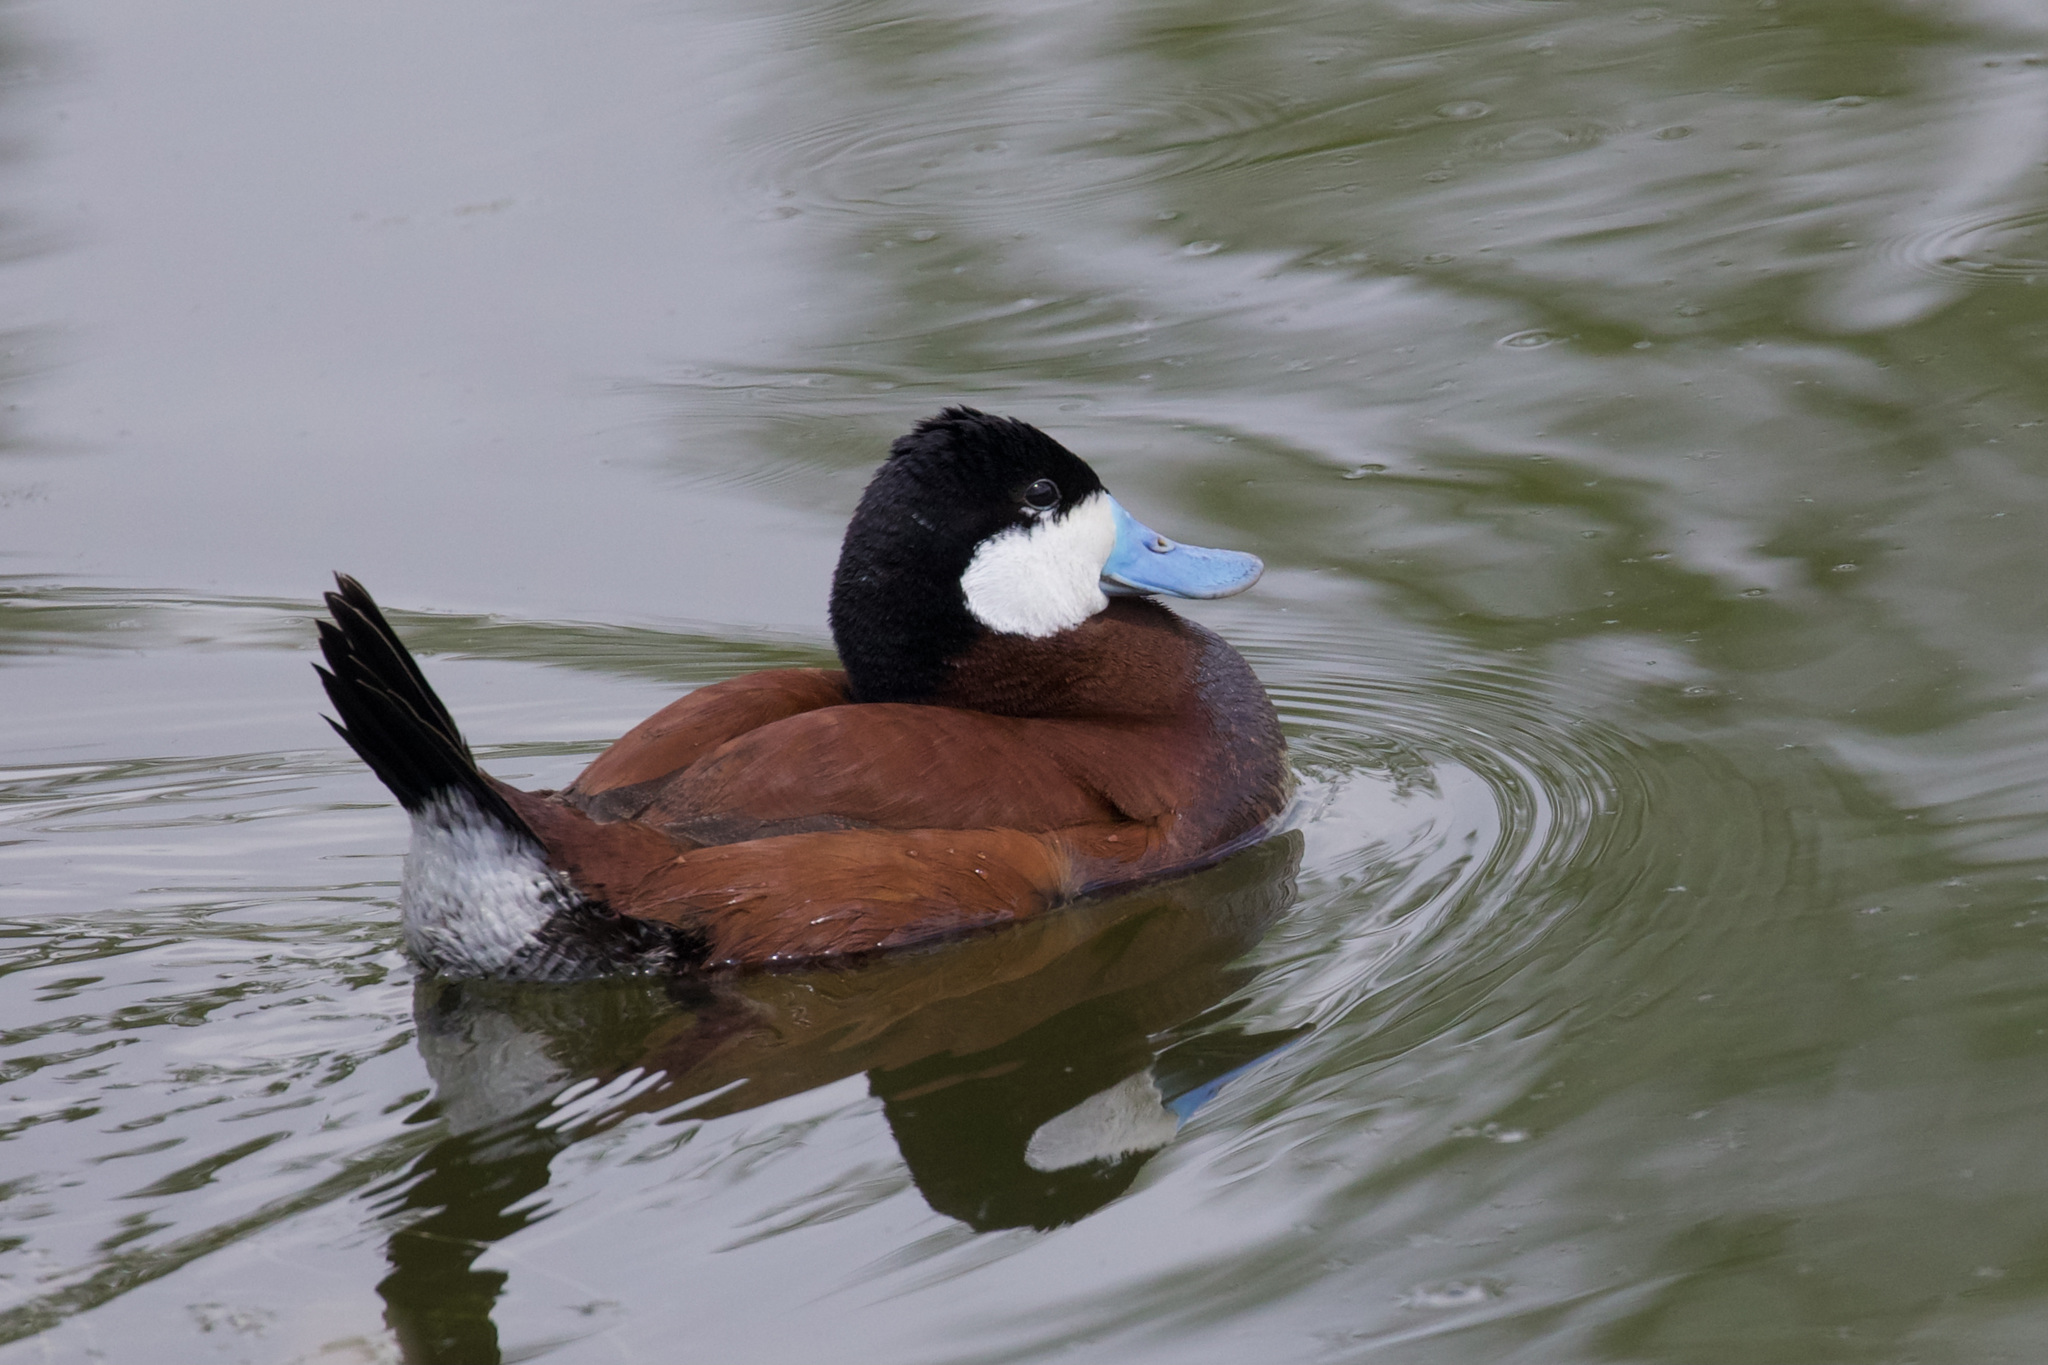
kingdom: Animalia
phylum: Chordata
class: Aves
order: Anseriformes
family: Anatidae
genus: Oxyura
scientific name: Oxyura jamaicensis
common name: Ruddy duck
